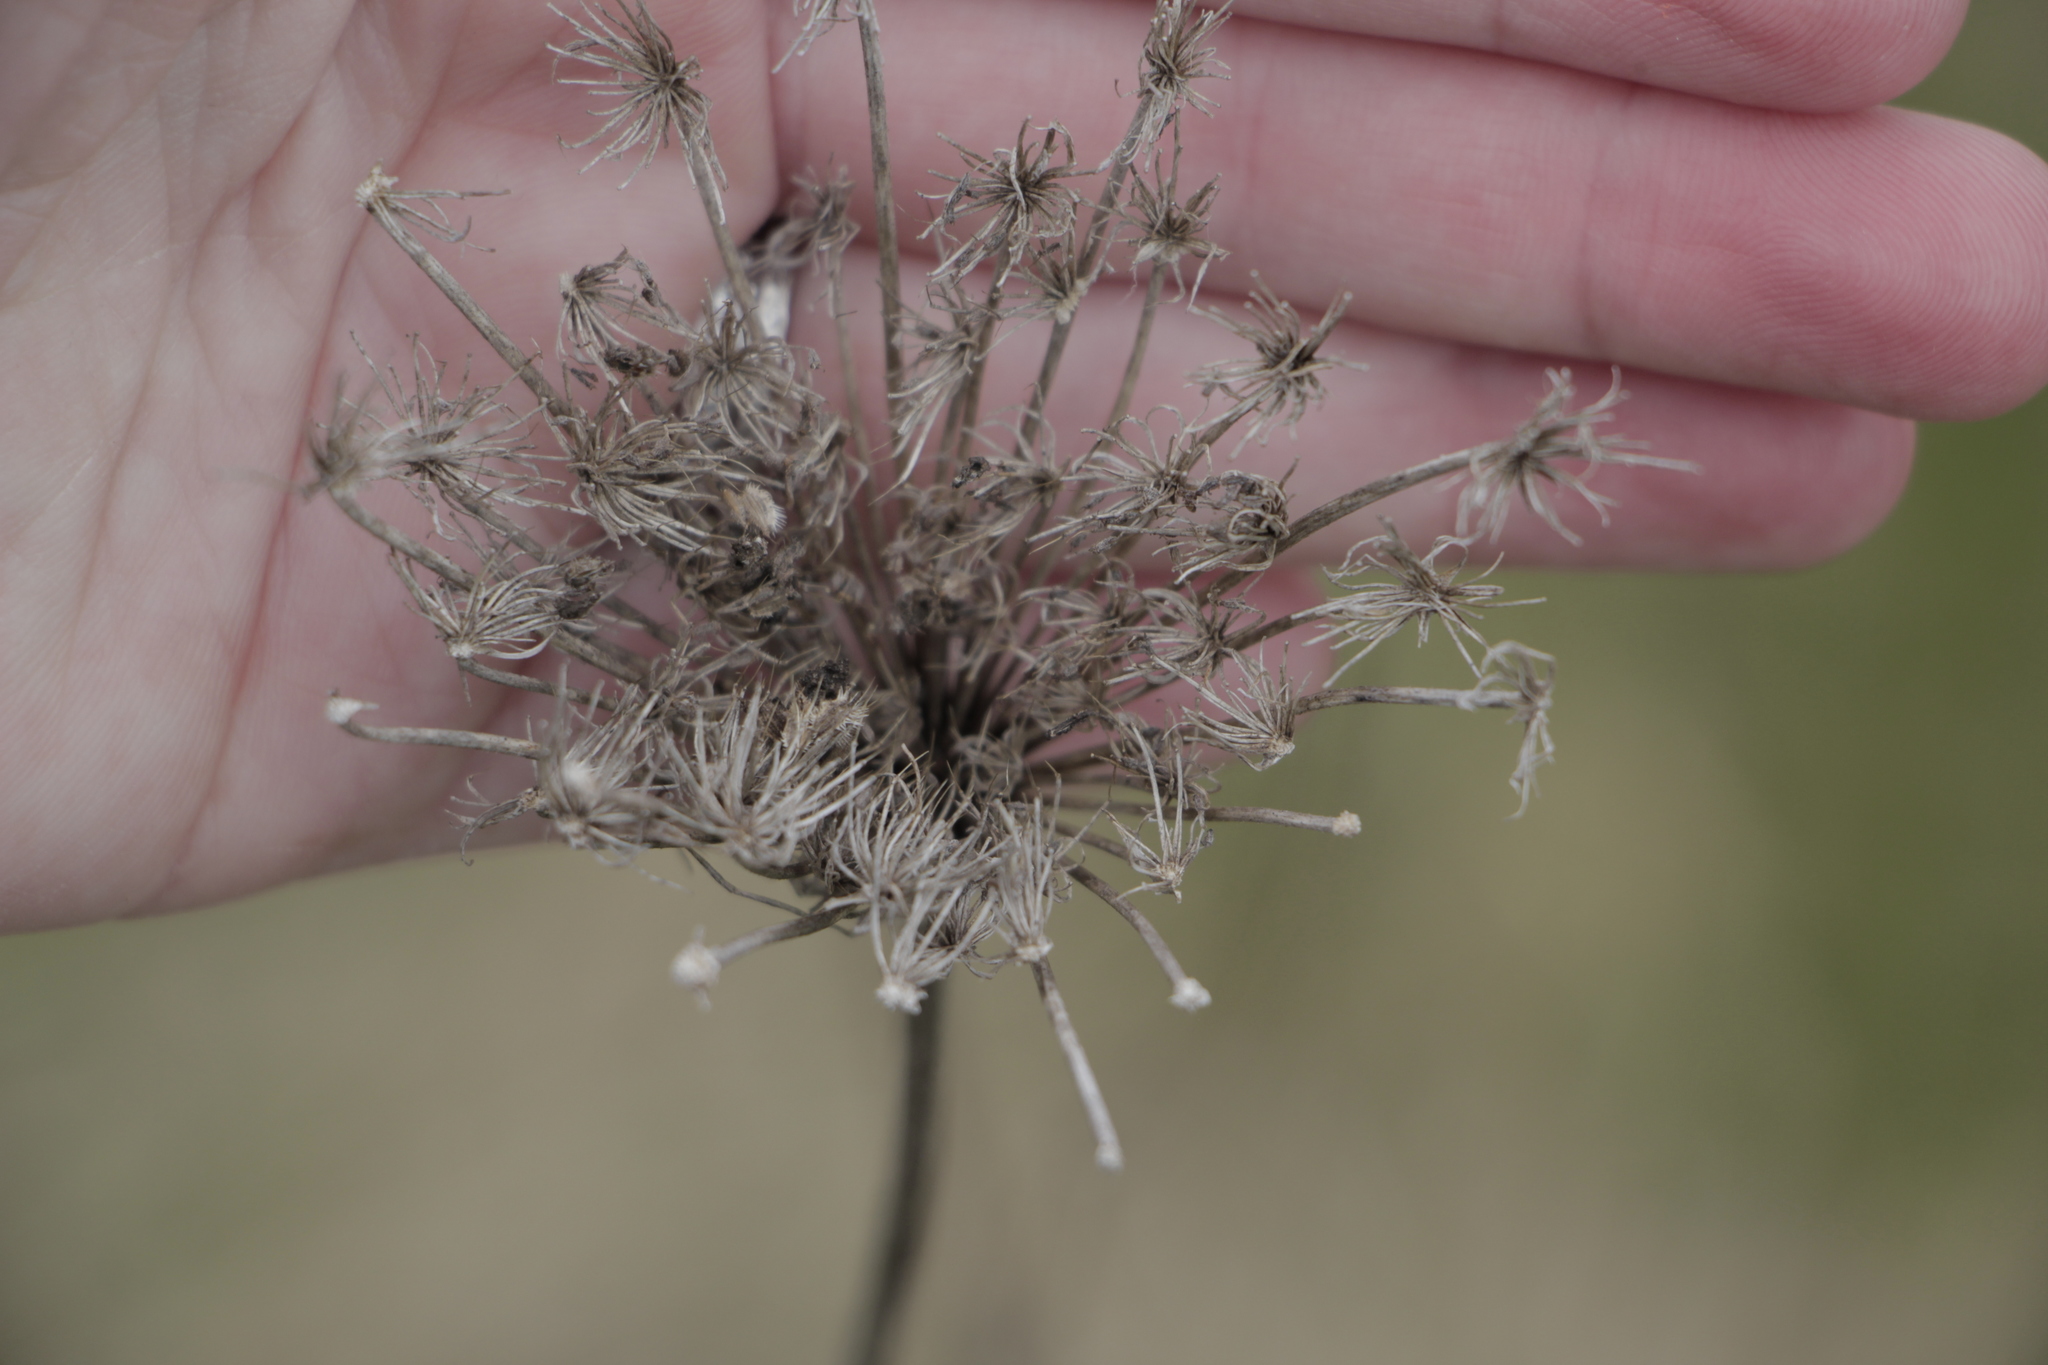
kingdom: Plantae
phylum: Tracheophyta
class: Magnoliopsida
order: Apiales
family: Apiaceae
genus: Daucus
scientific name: Daucus carota
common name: Wild carrot
